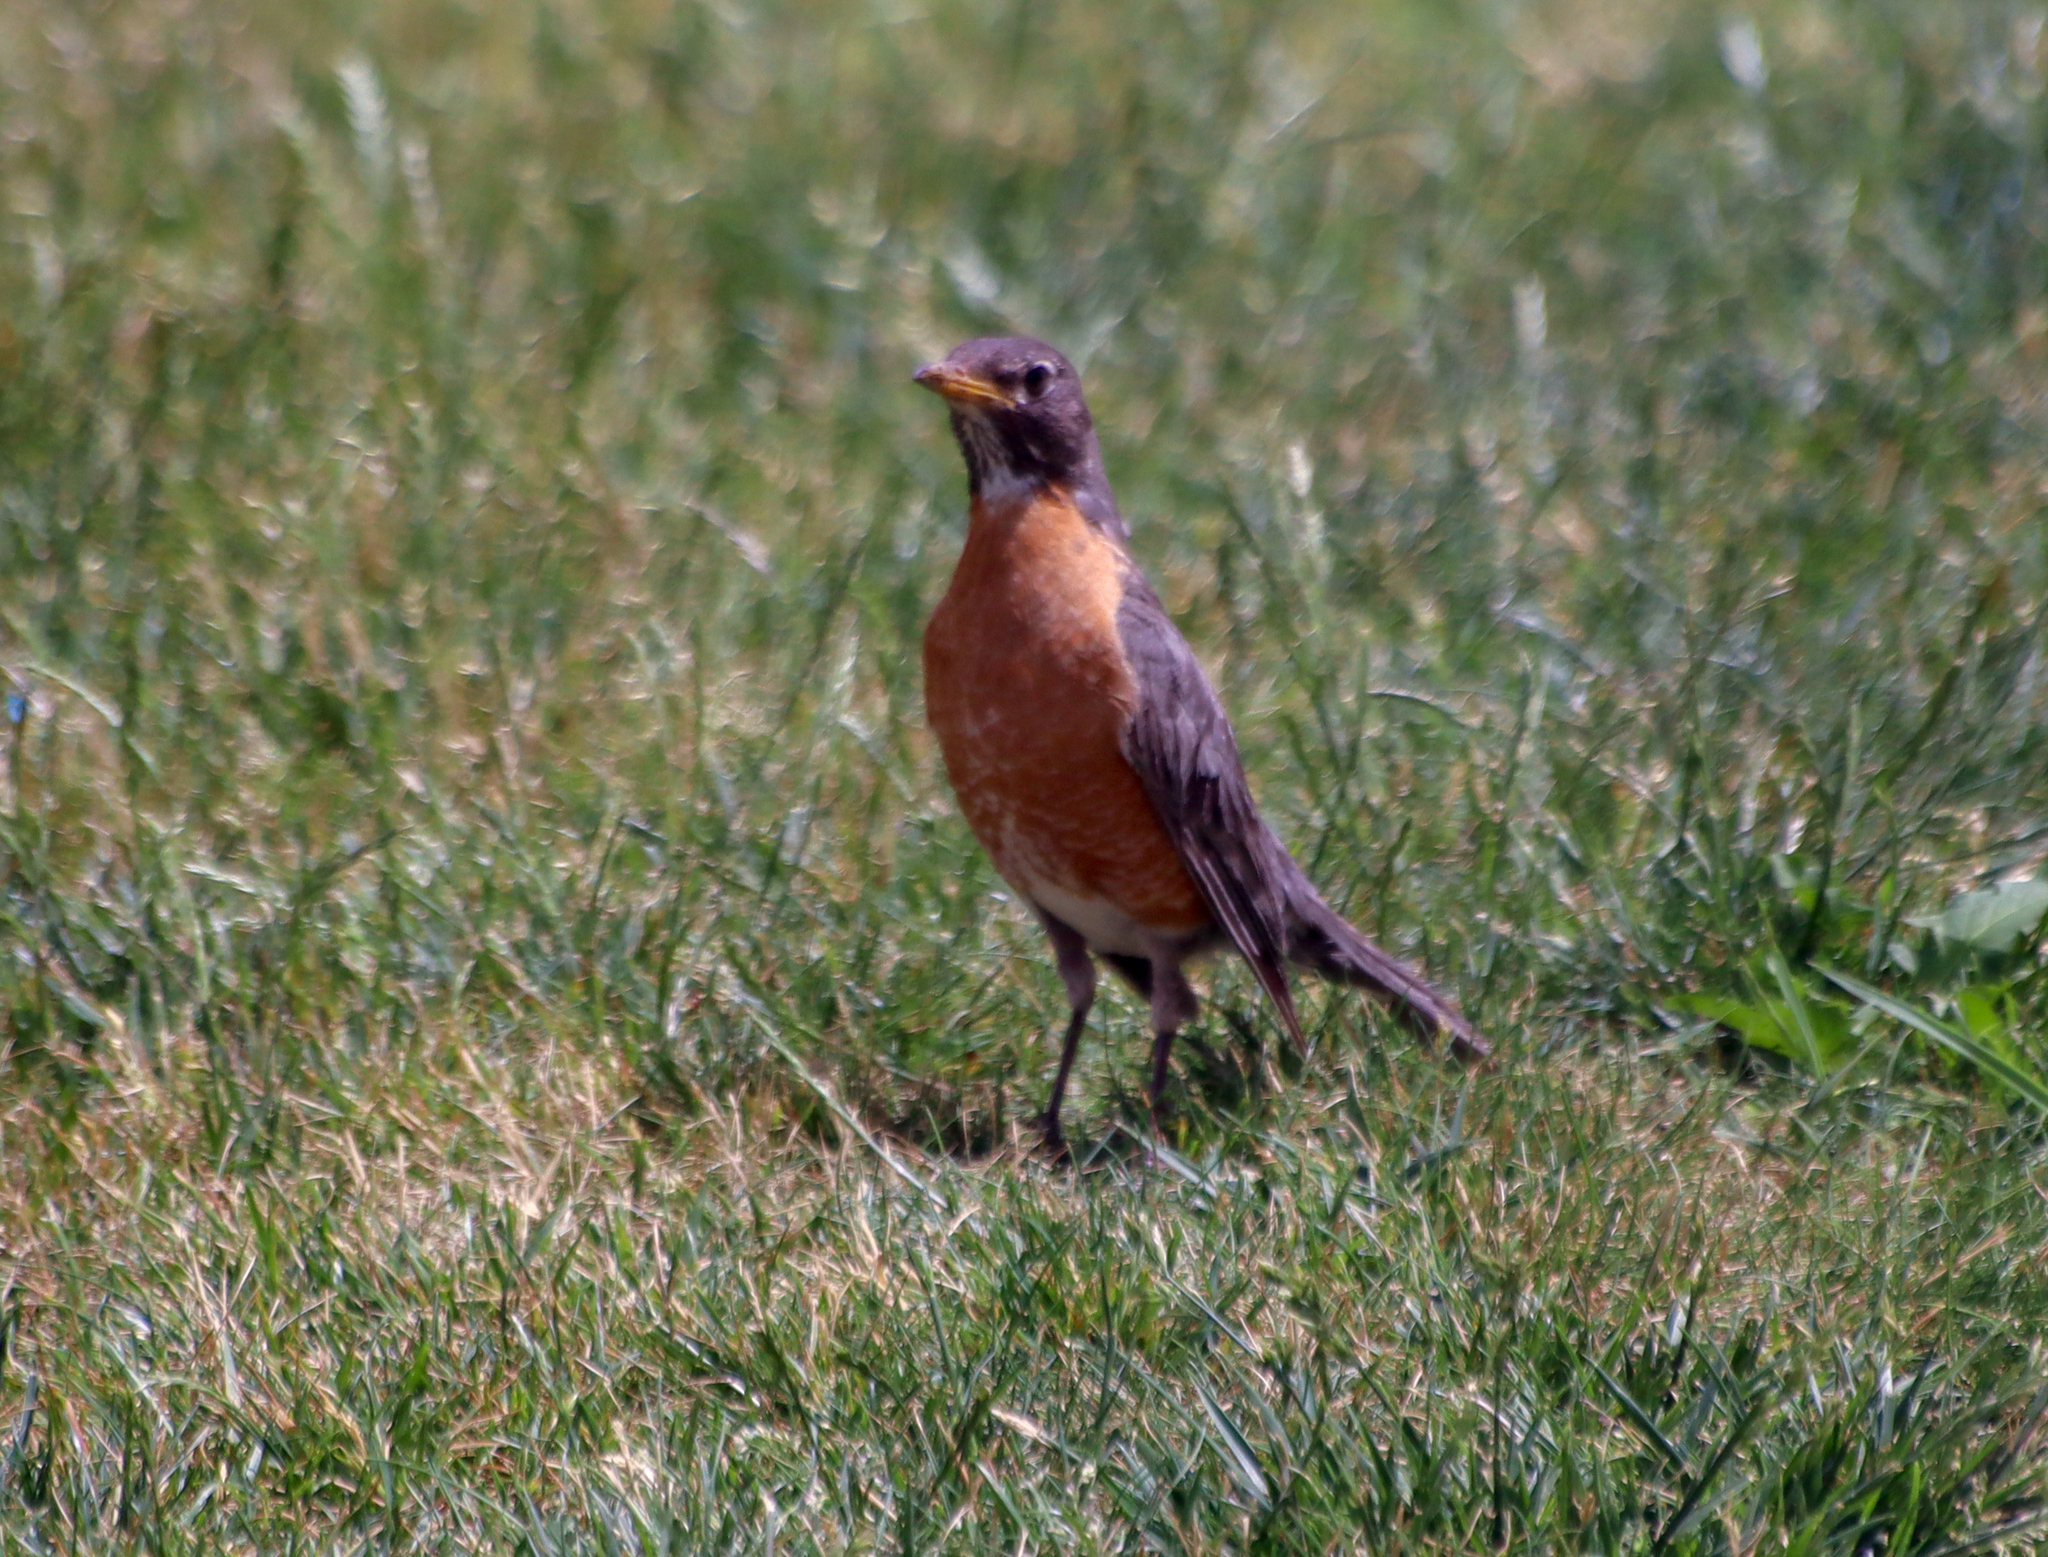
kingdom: Animalia
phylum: Chordata
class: Aves
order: Passeriformes
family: Turdidae
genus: Turdus
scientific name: Turdus migratorius
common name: American robin
